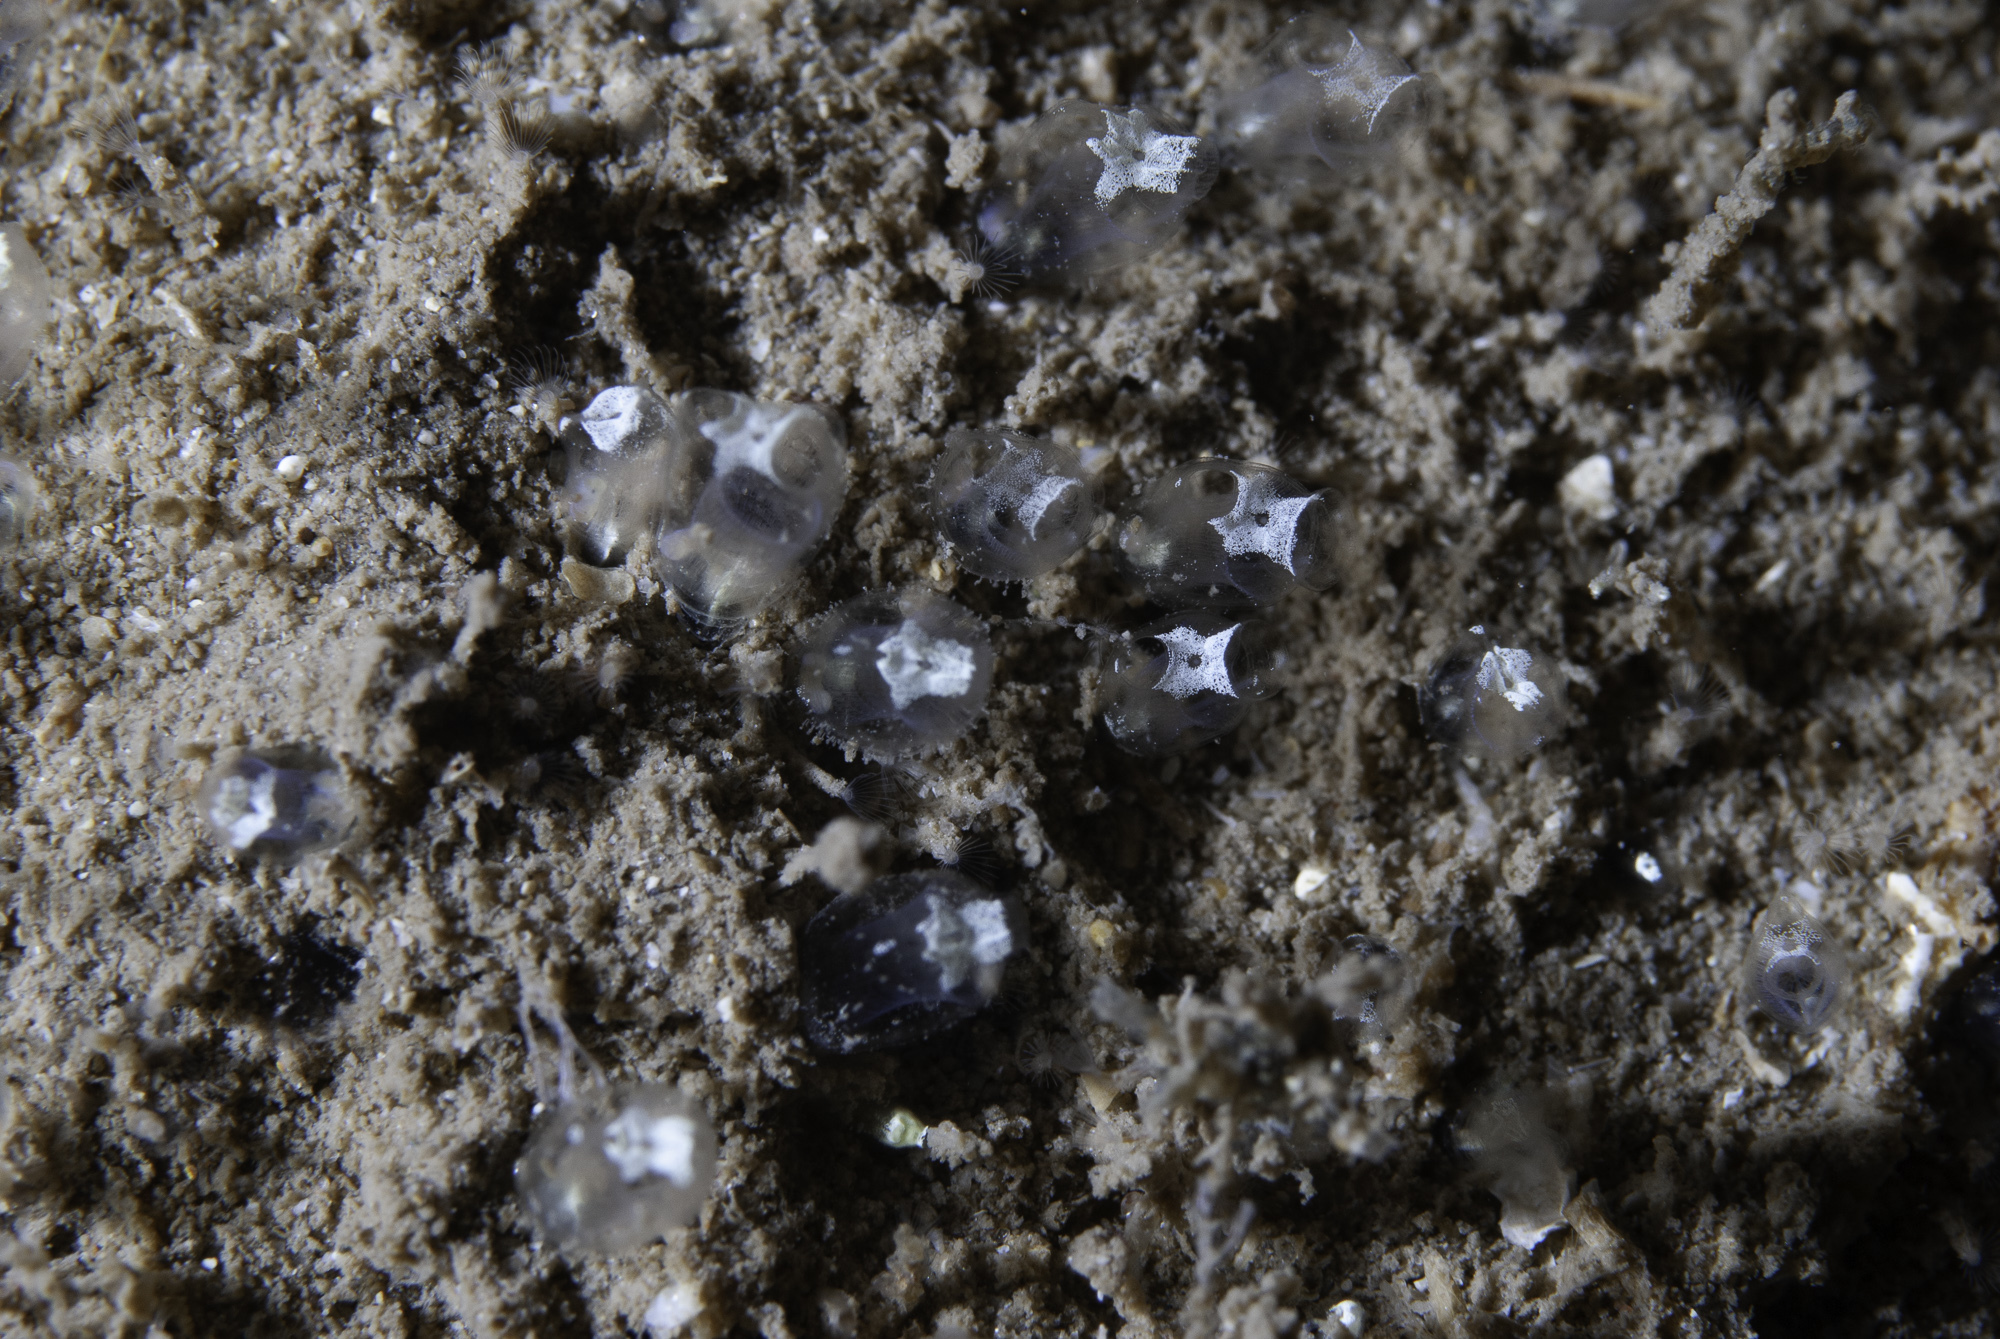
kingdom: Animalia
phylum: Chordata
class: Ascidiacea
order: Aplousobranchia
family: Clavelinidae
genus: Pycnoclavella
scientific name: Pycnoclavella stolonialis
